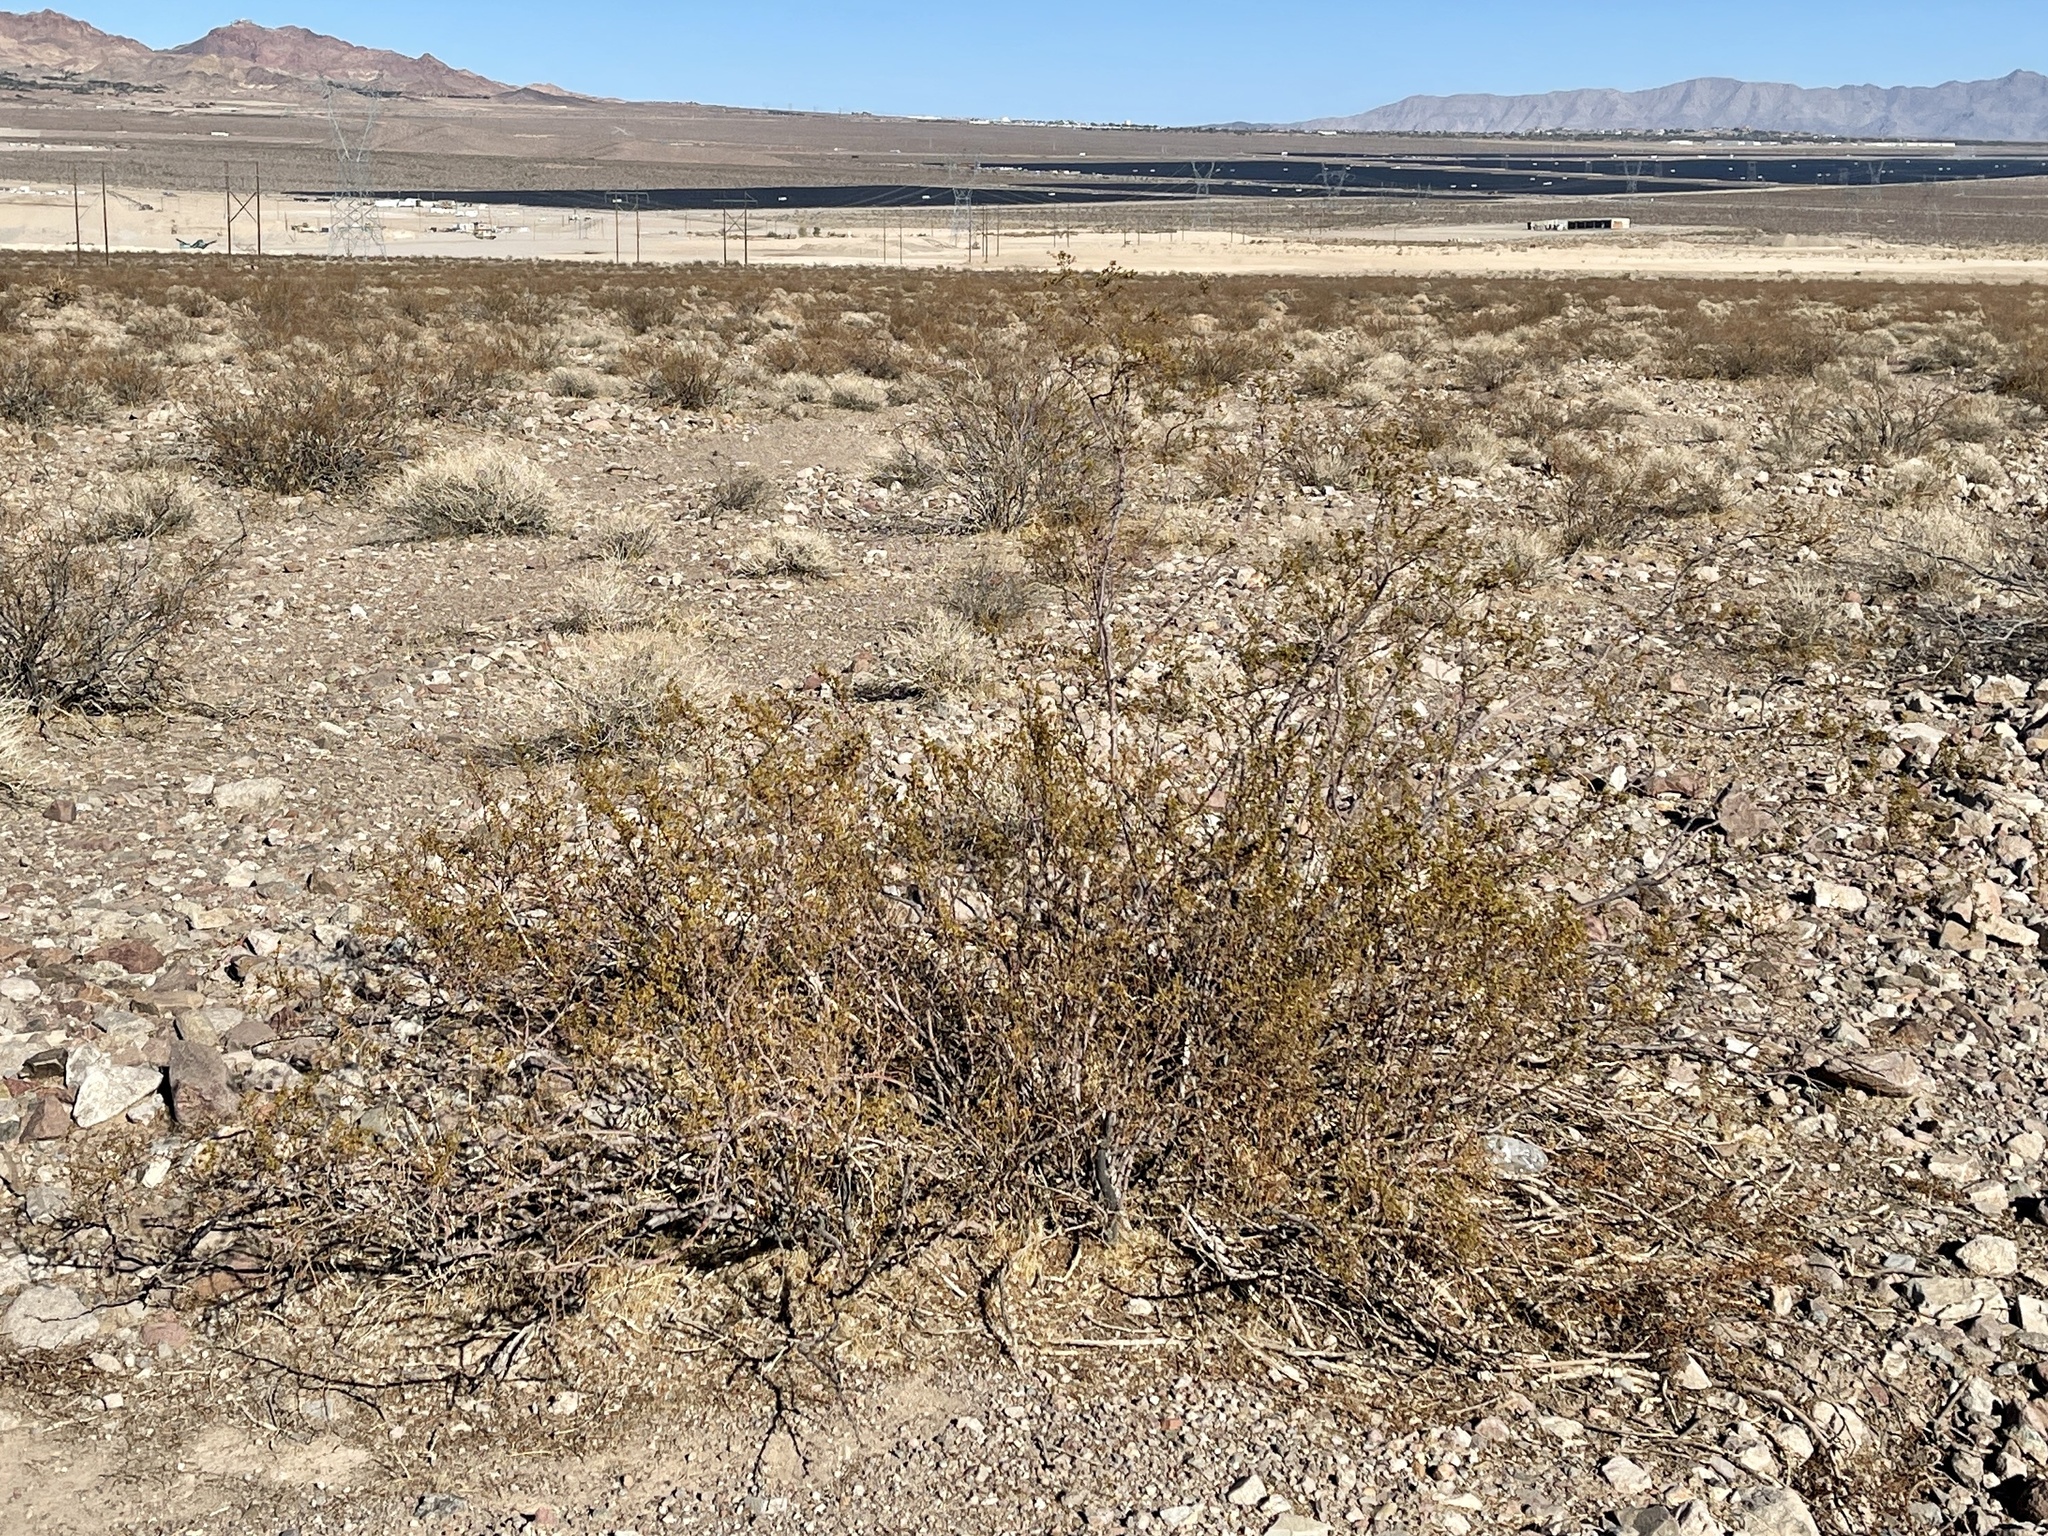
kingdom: Plantae
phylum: Tracheophyta
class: Magnoliopsida
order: Zygophyllales
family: Zygophyllaceae
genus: Larrea
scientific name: Larrea tridentata
